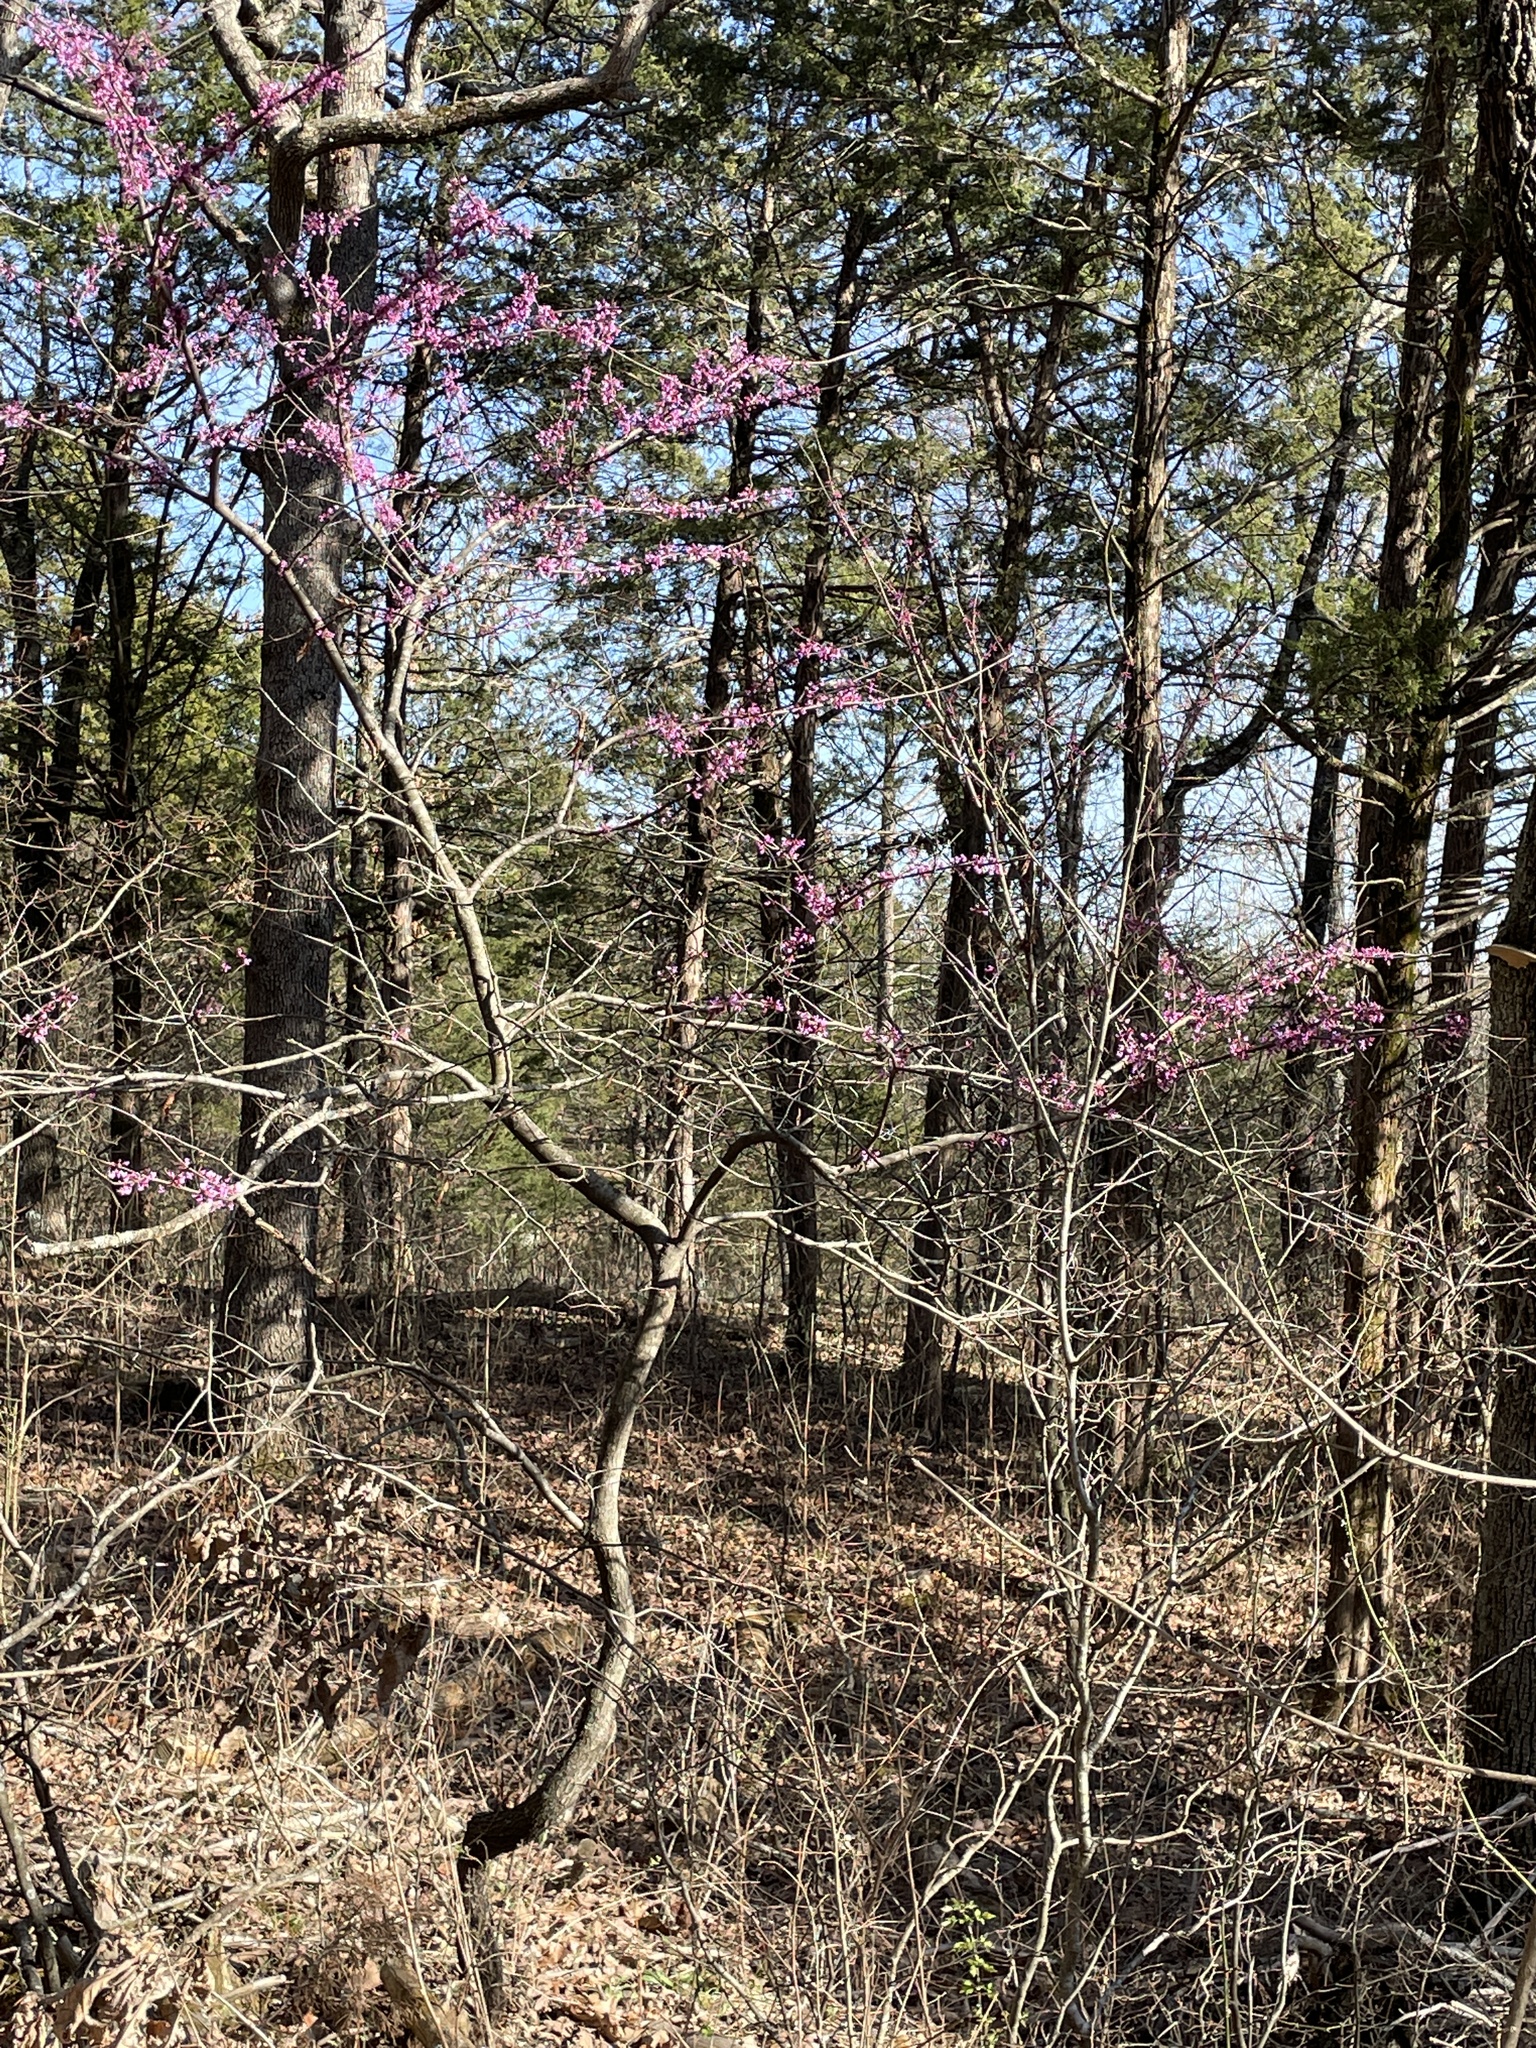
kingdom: Plantae
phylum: Tracheophyta
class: Magnoliopsida
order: Fabales
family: Fabaceae
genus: Cercis
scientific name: Cercis canadensis
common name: Eastern redbud
